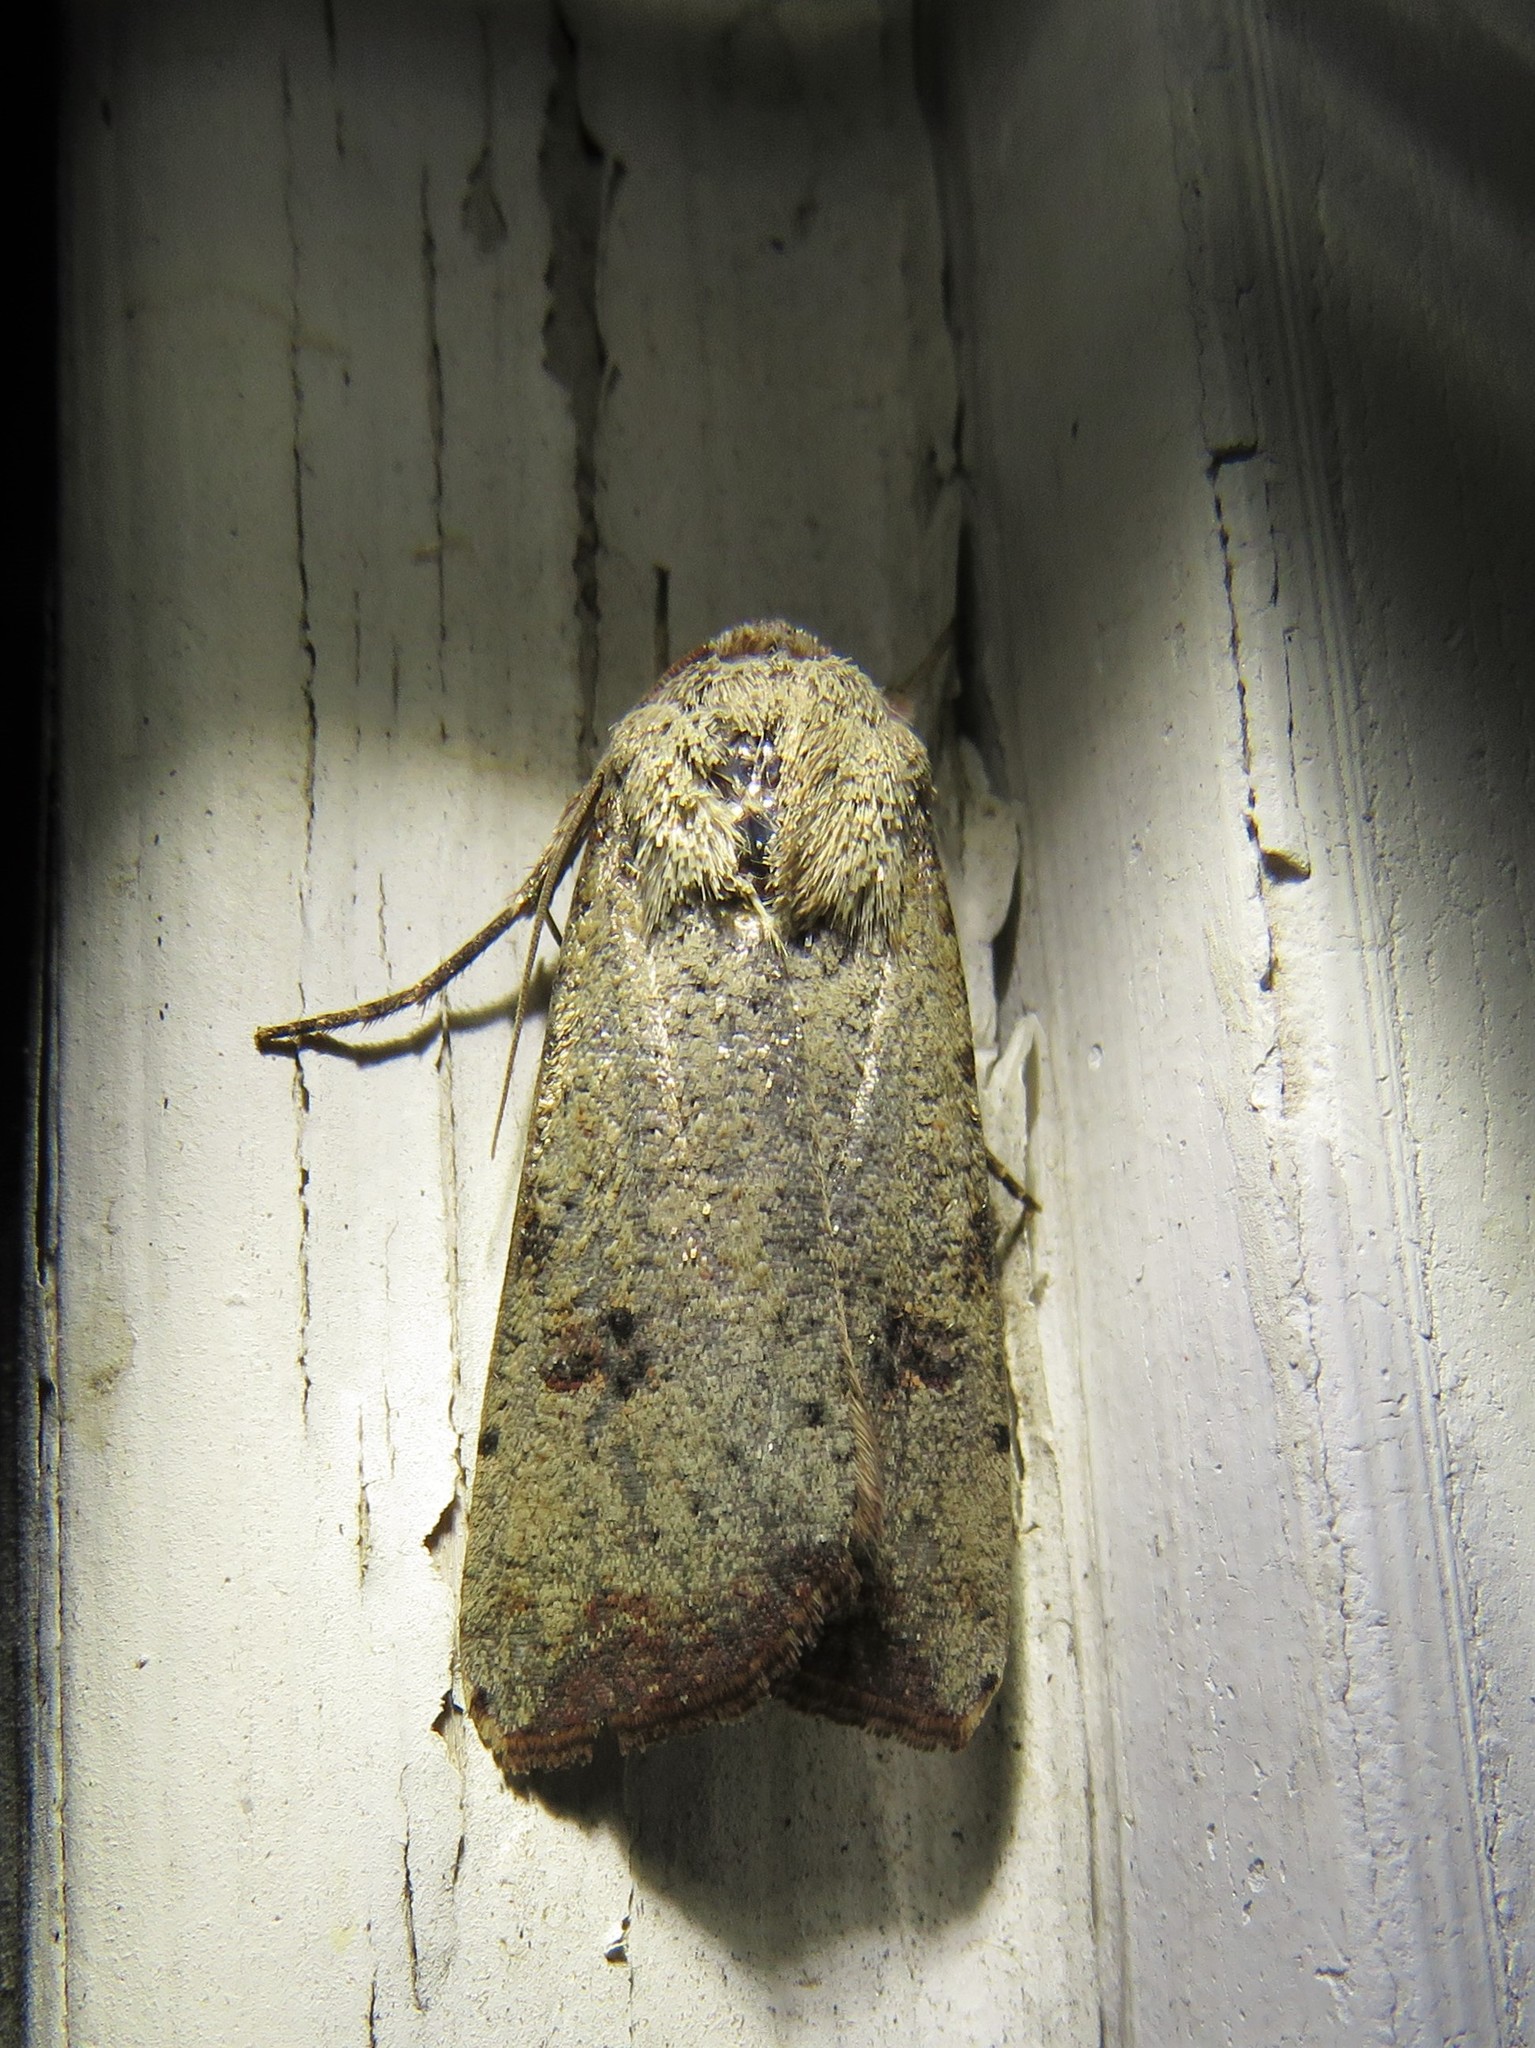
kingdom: Animalia
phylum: Arthropoda
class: Insecta
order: Lepidoptera
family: Noctuidae
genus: Anicla
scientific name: Anicla infecta
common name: Green cutworm
